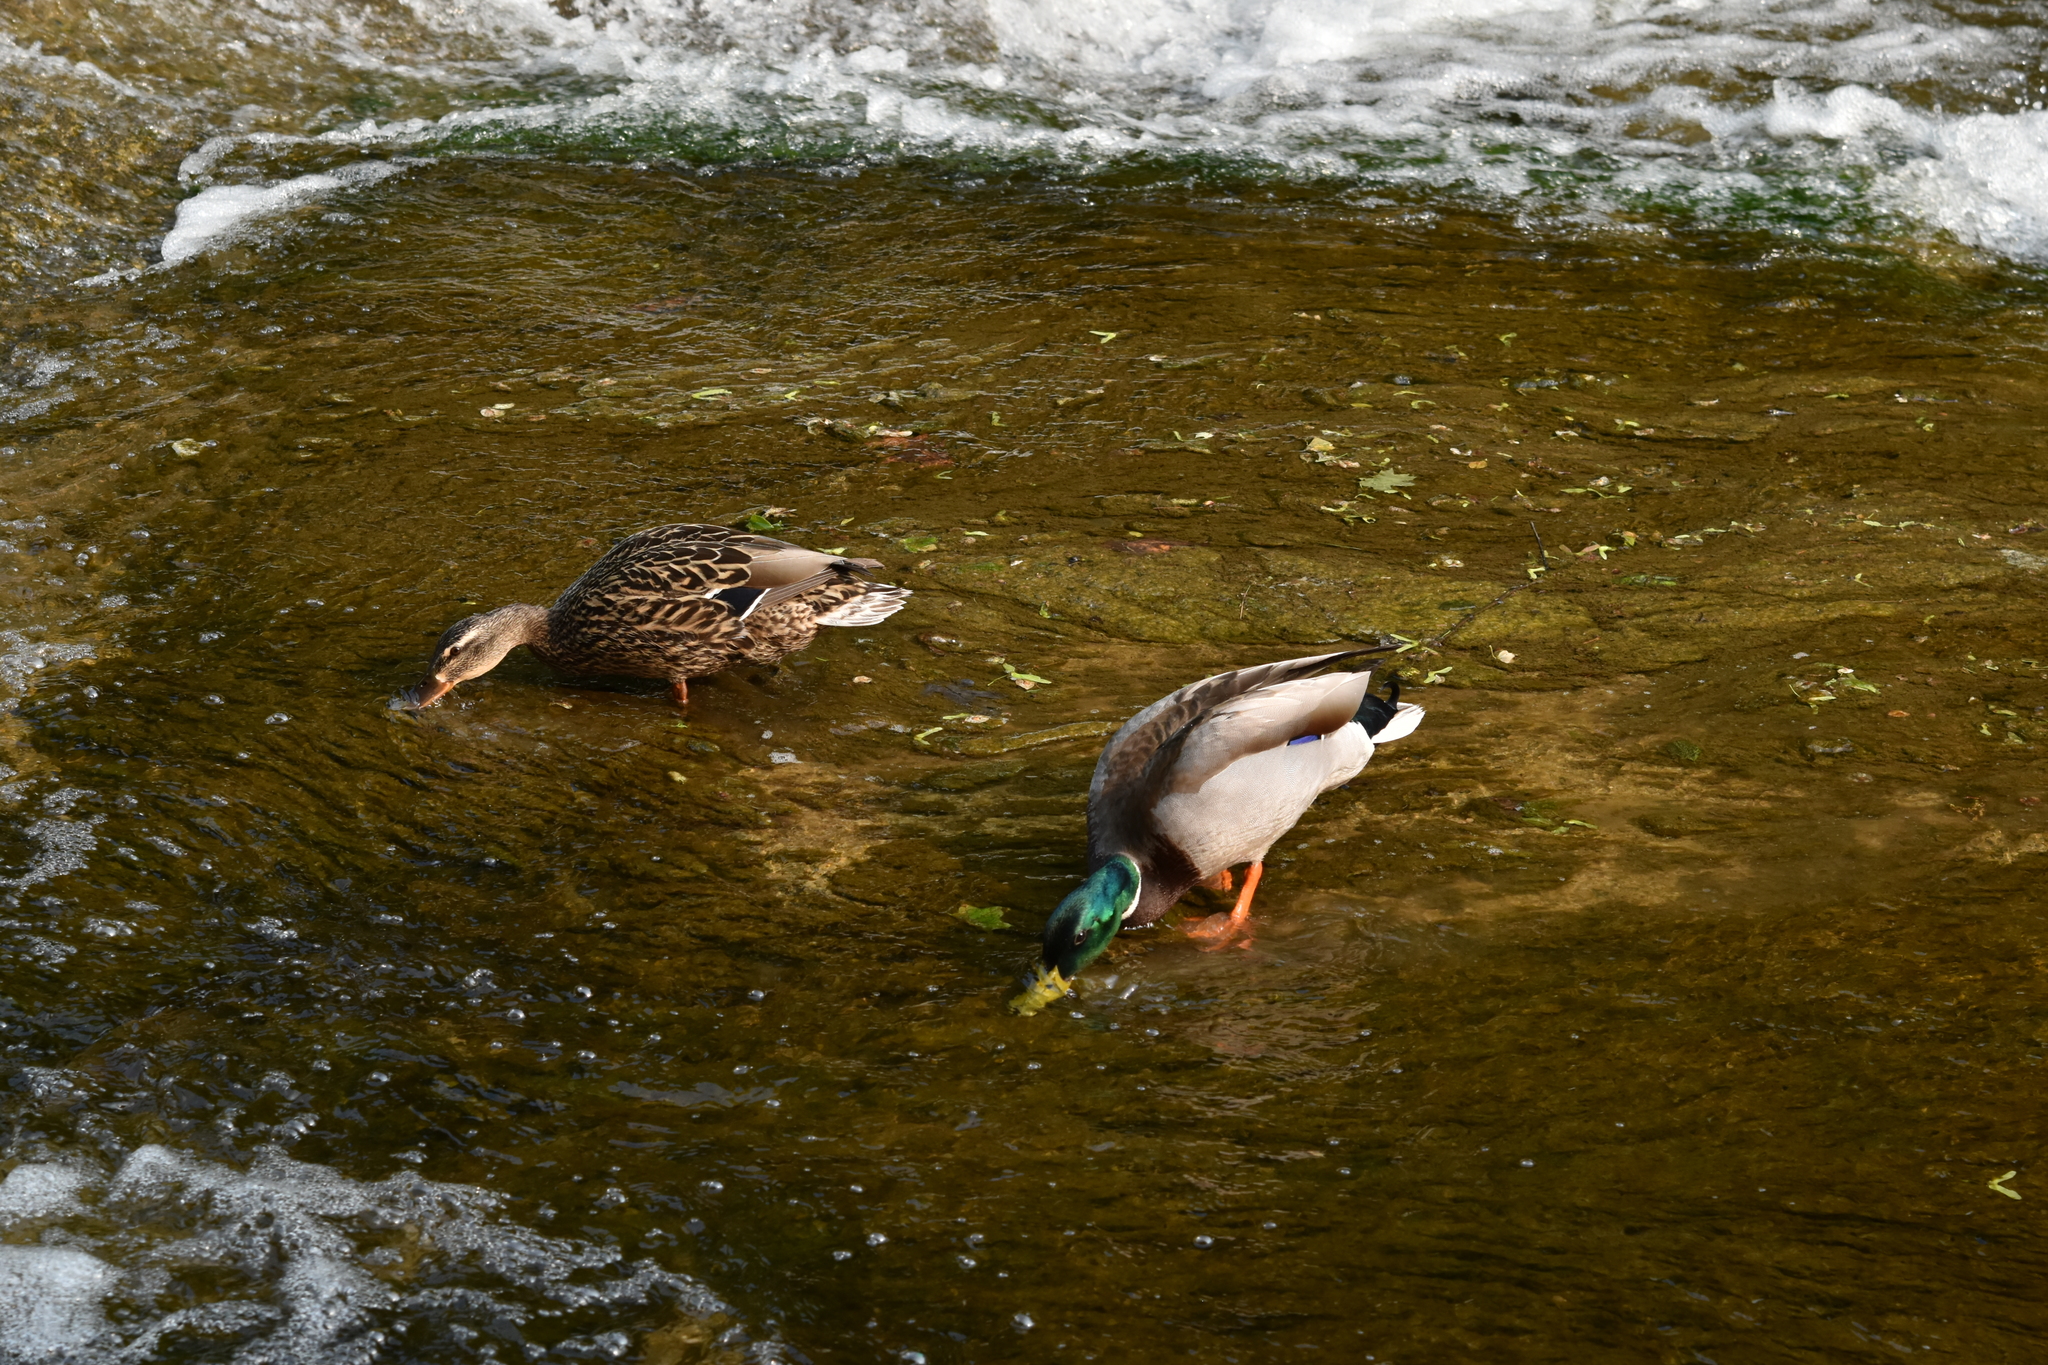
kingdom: Animalia
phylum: Chordata
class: Aves
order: Anseriformes
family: Anatidae
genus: Anas
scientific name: Anas platyrhynchos
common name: Mallard
